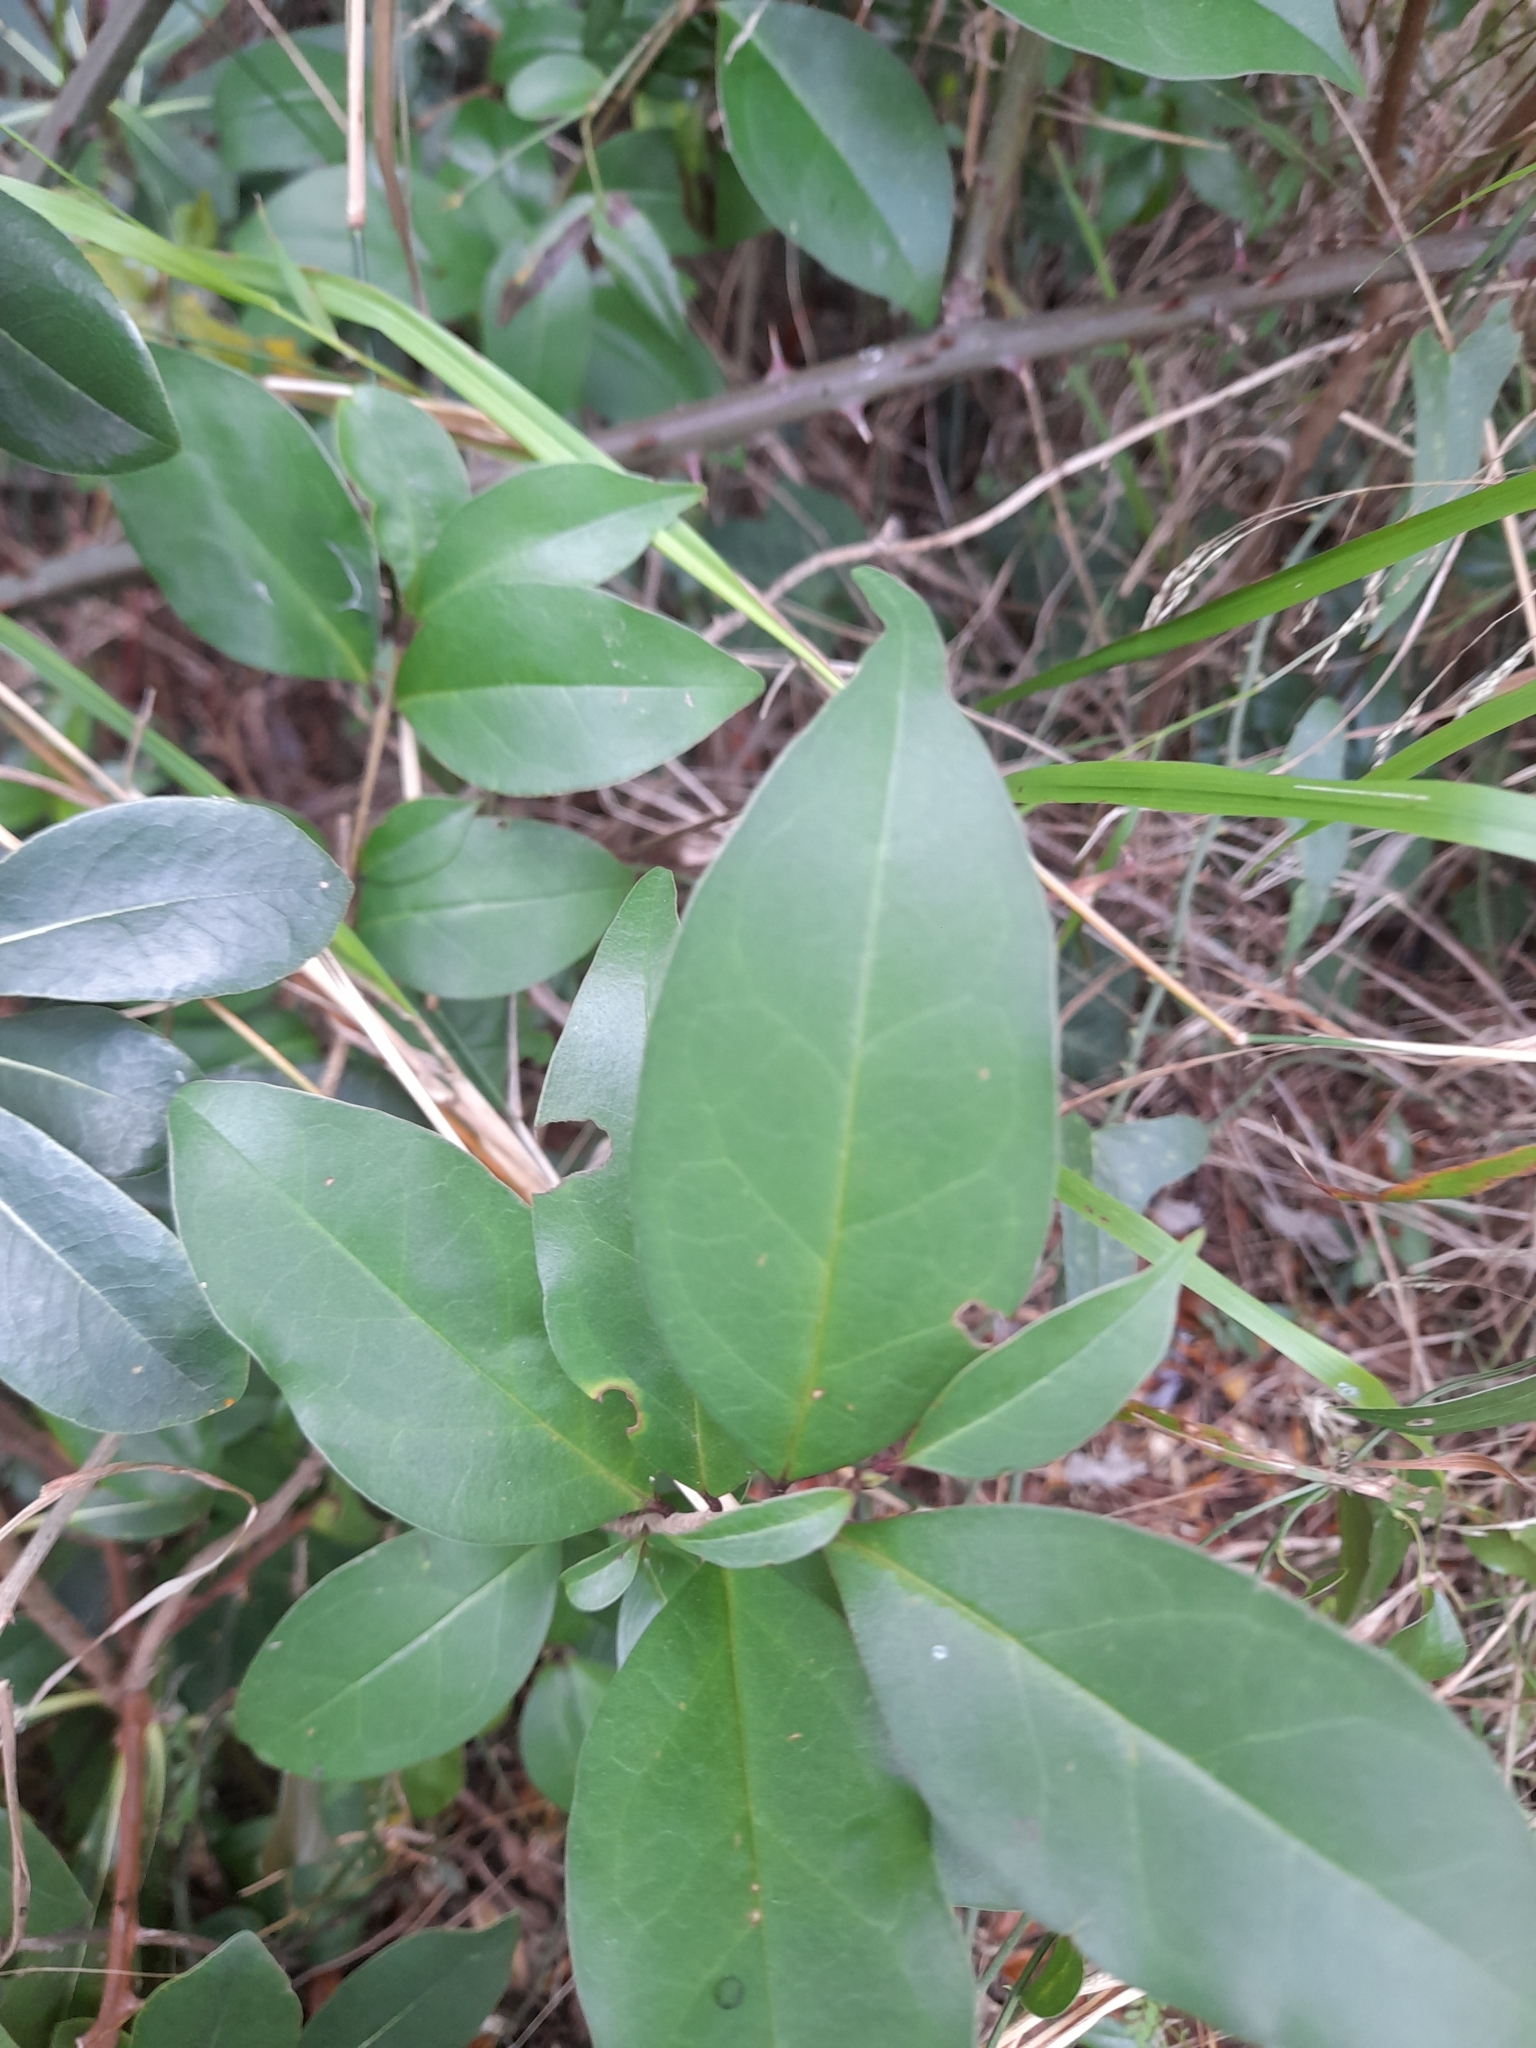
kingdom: Plantae
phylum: Tracheophyta
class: Magnoliopsida
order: Lamiales
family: Oleaceae
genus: Ligustrum
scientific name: Ligustrum lucidum
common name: Glossy privet
